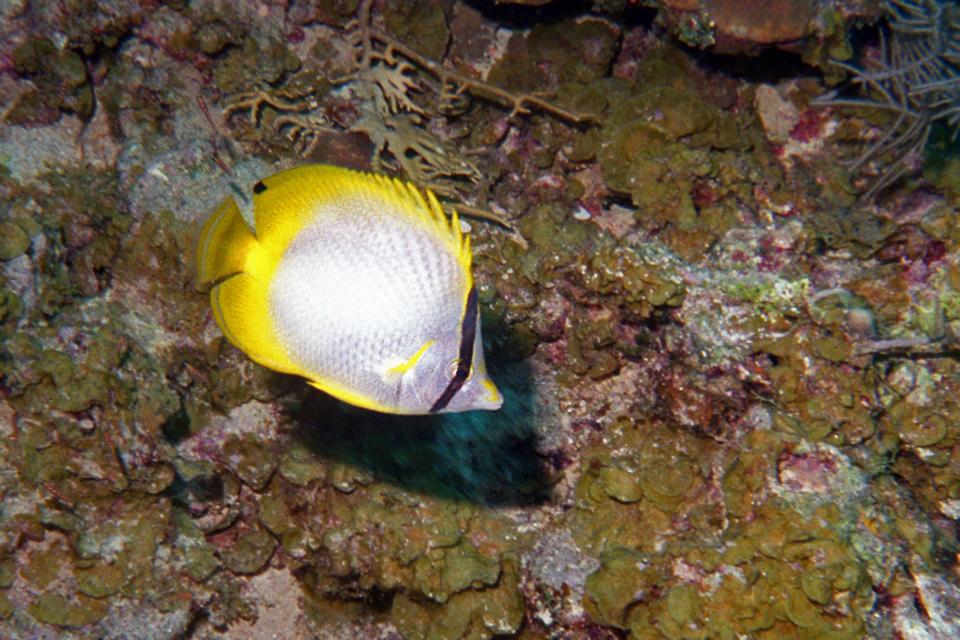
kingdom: Animalia
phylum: Chordata
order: Perciformes
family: Chaetodontidae
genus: Chaetodon
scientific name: Chaetodon ocellatus
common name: Spotfin butterflyfish
